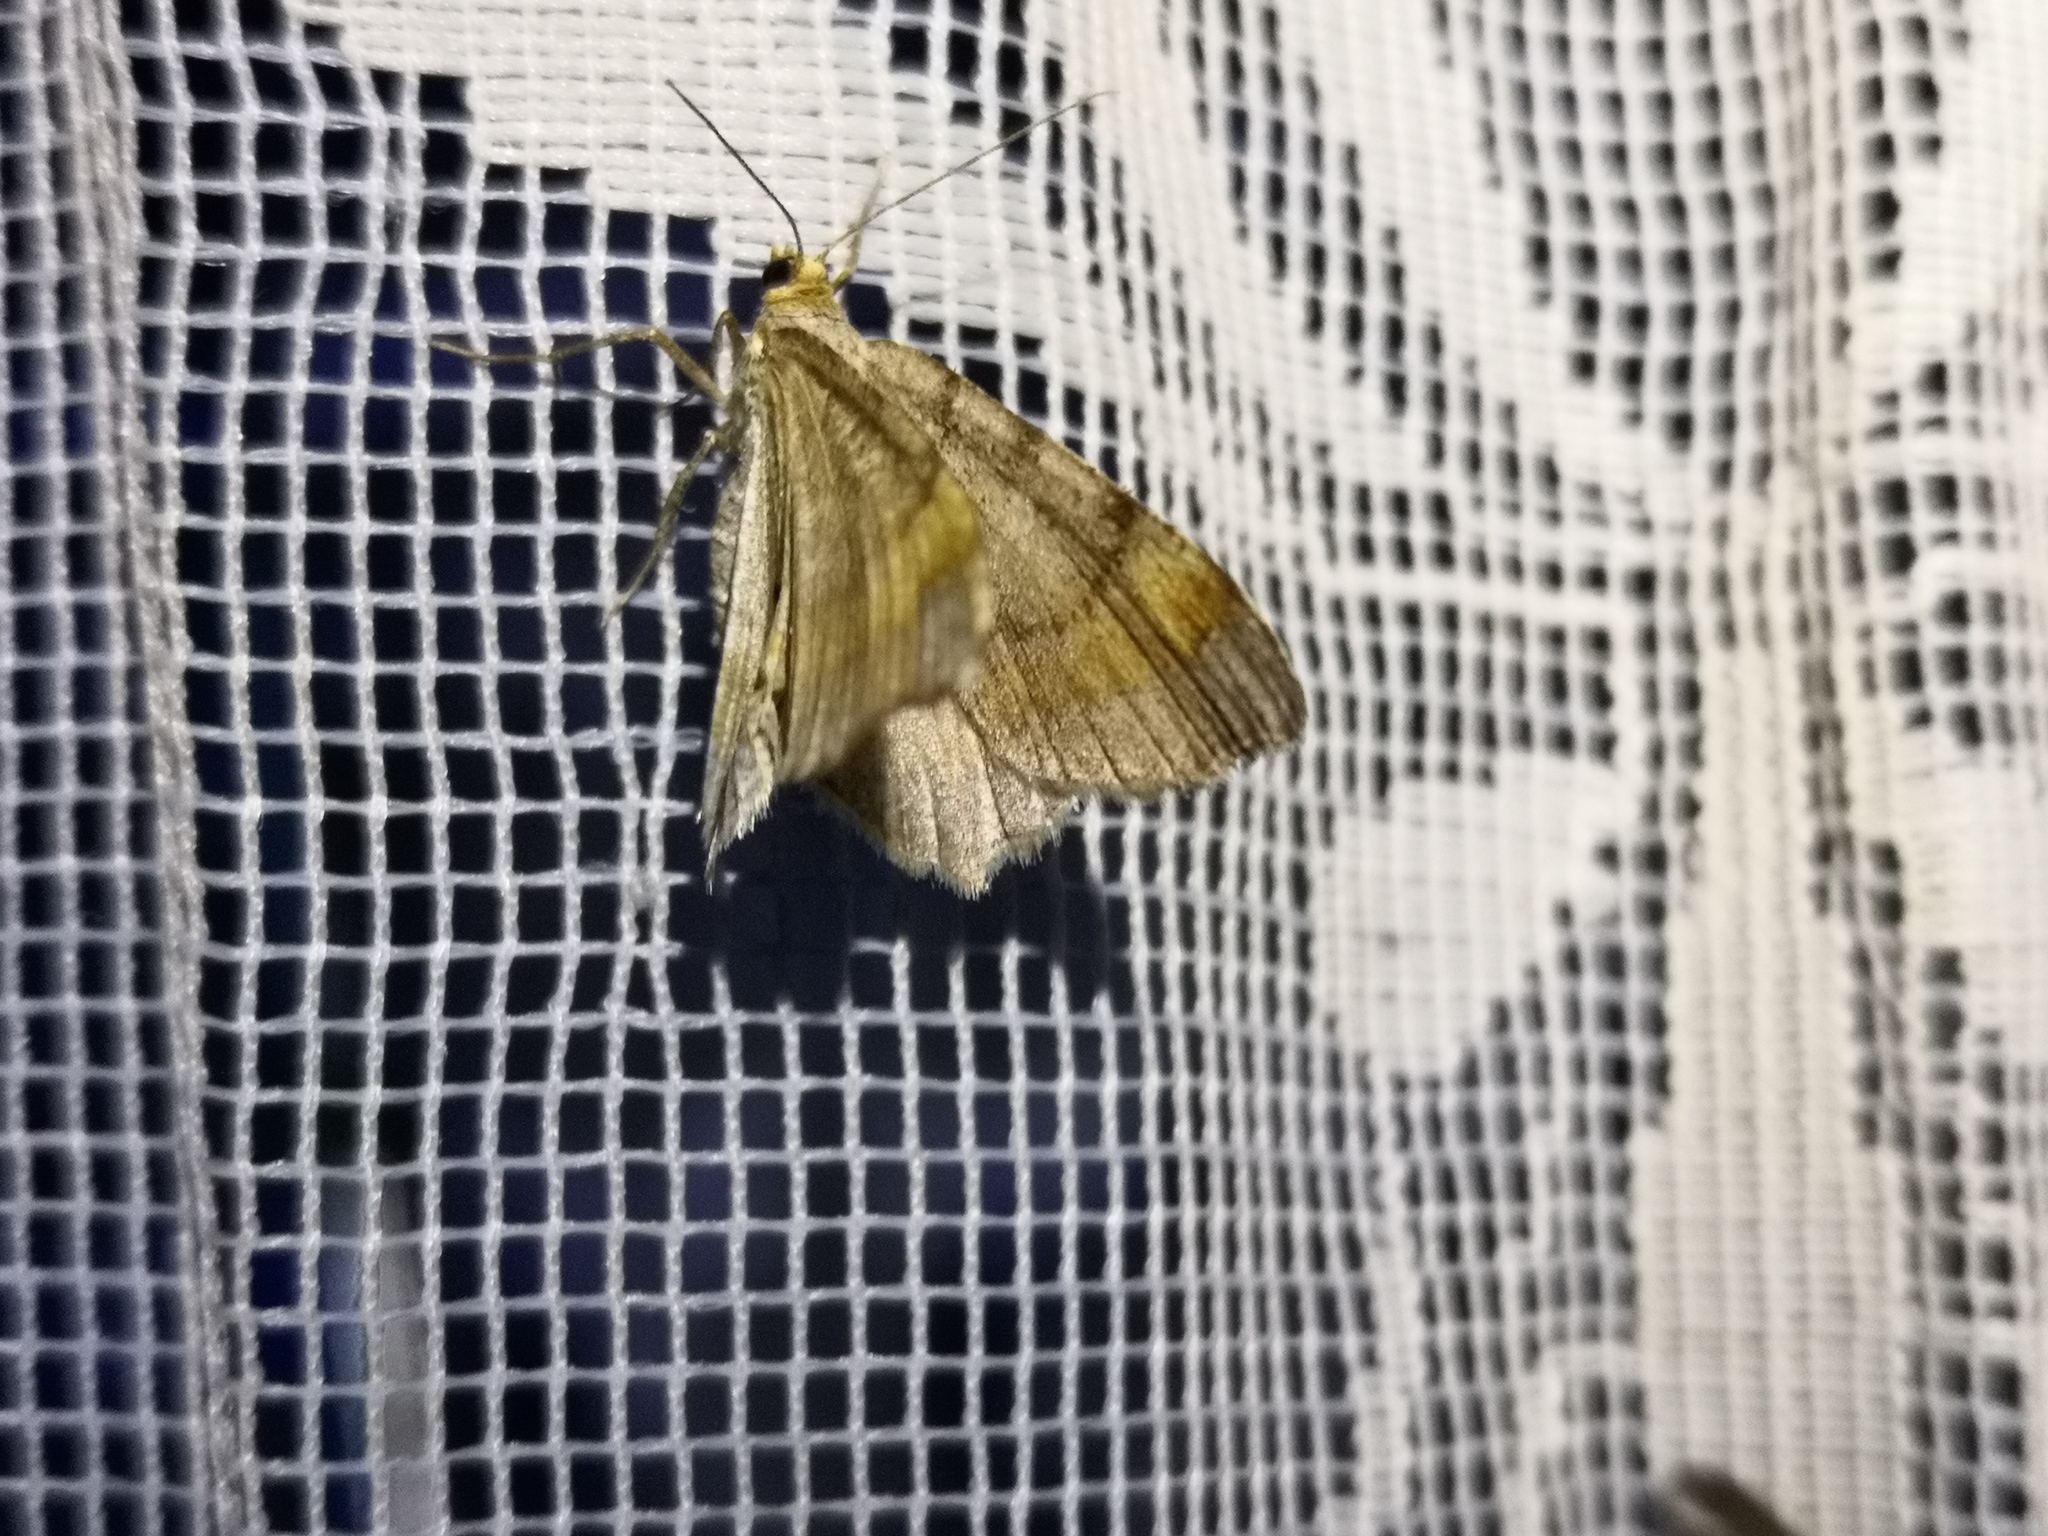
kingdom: Animalia
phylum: Arthropoda
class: Insecta
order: Lepidoptera
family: Geometridae
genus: Macaria
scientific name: Macaria liturata
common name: Tawny-barred angle
